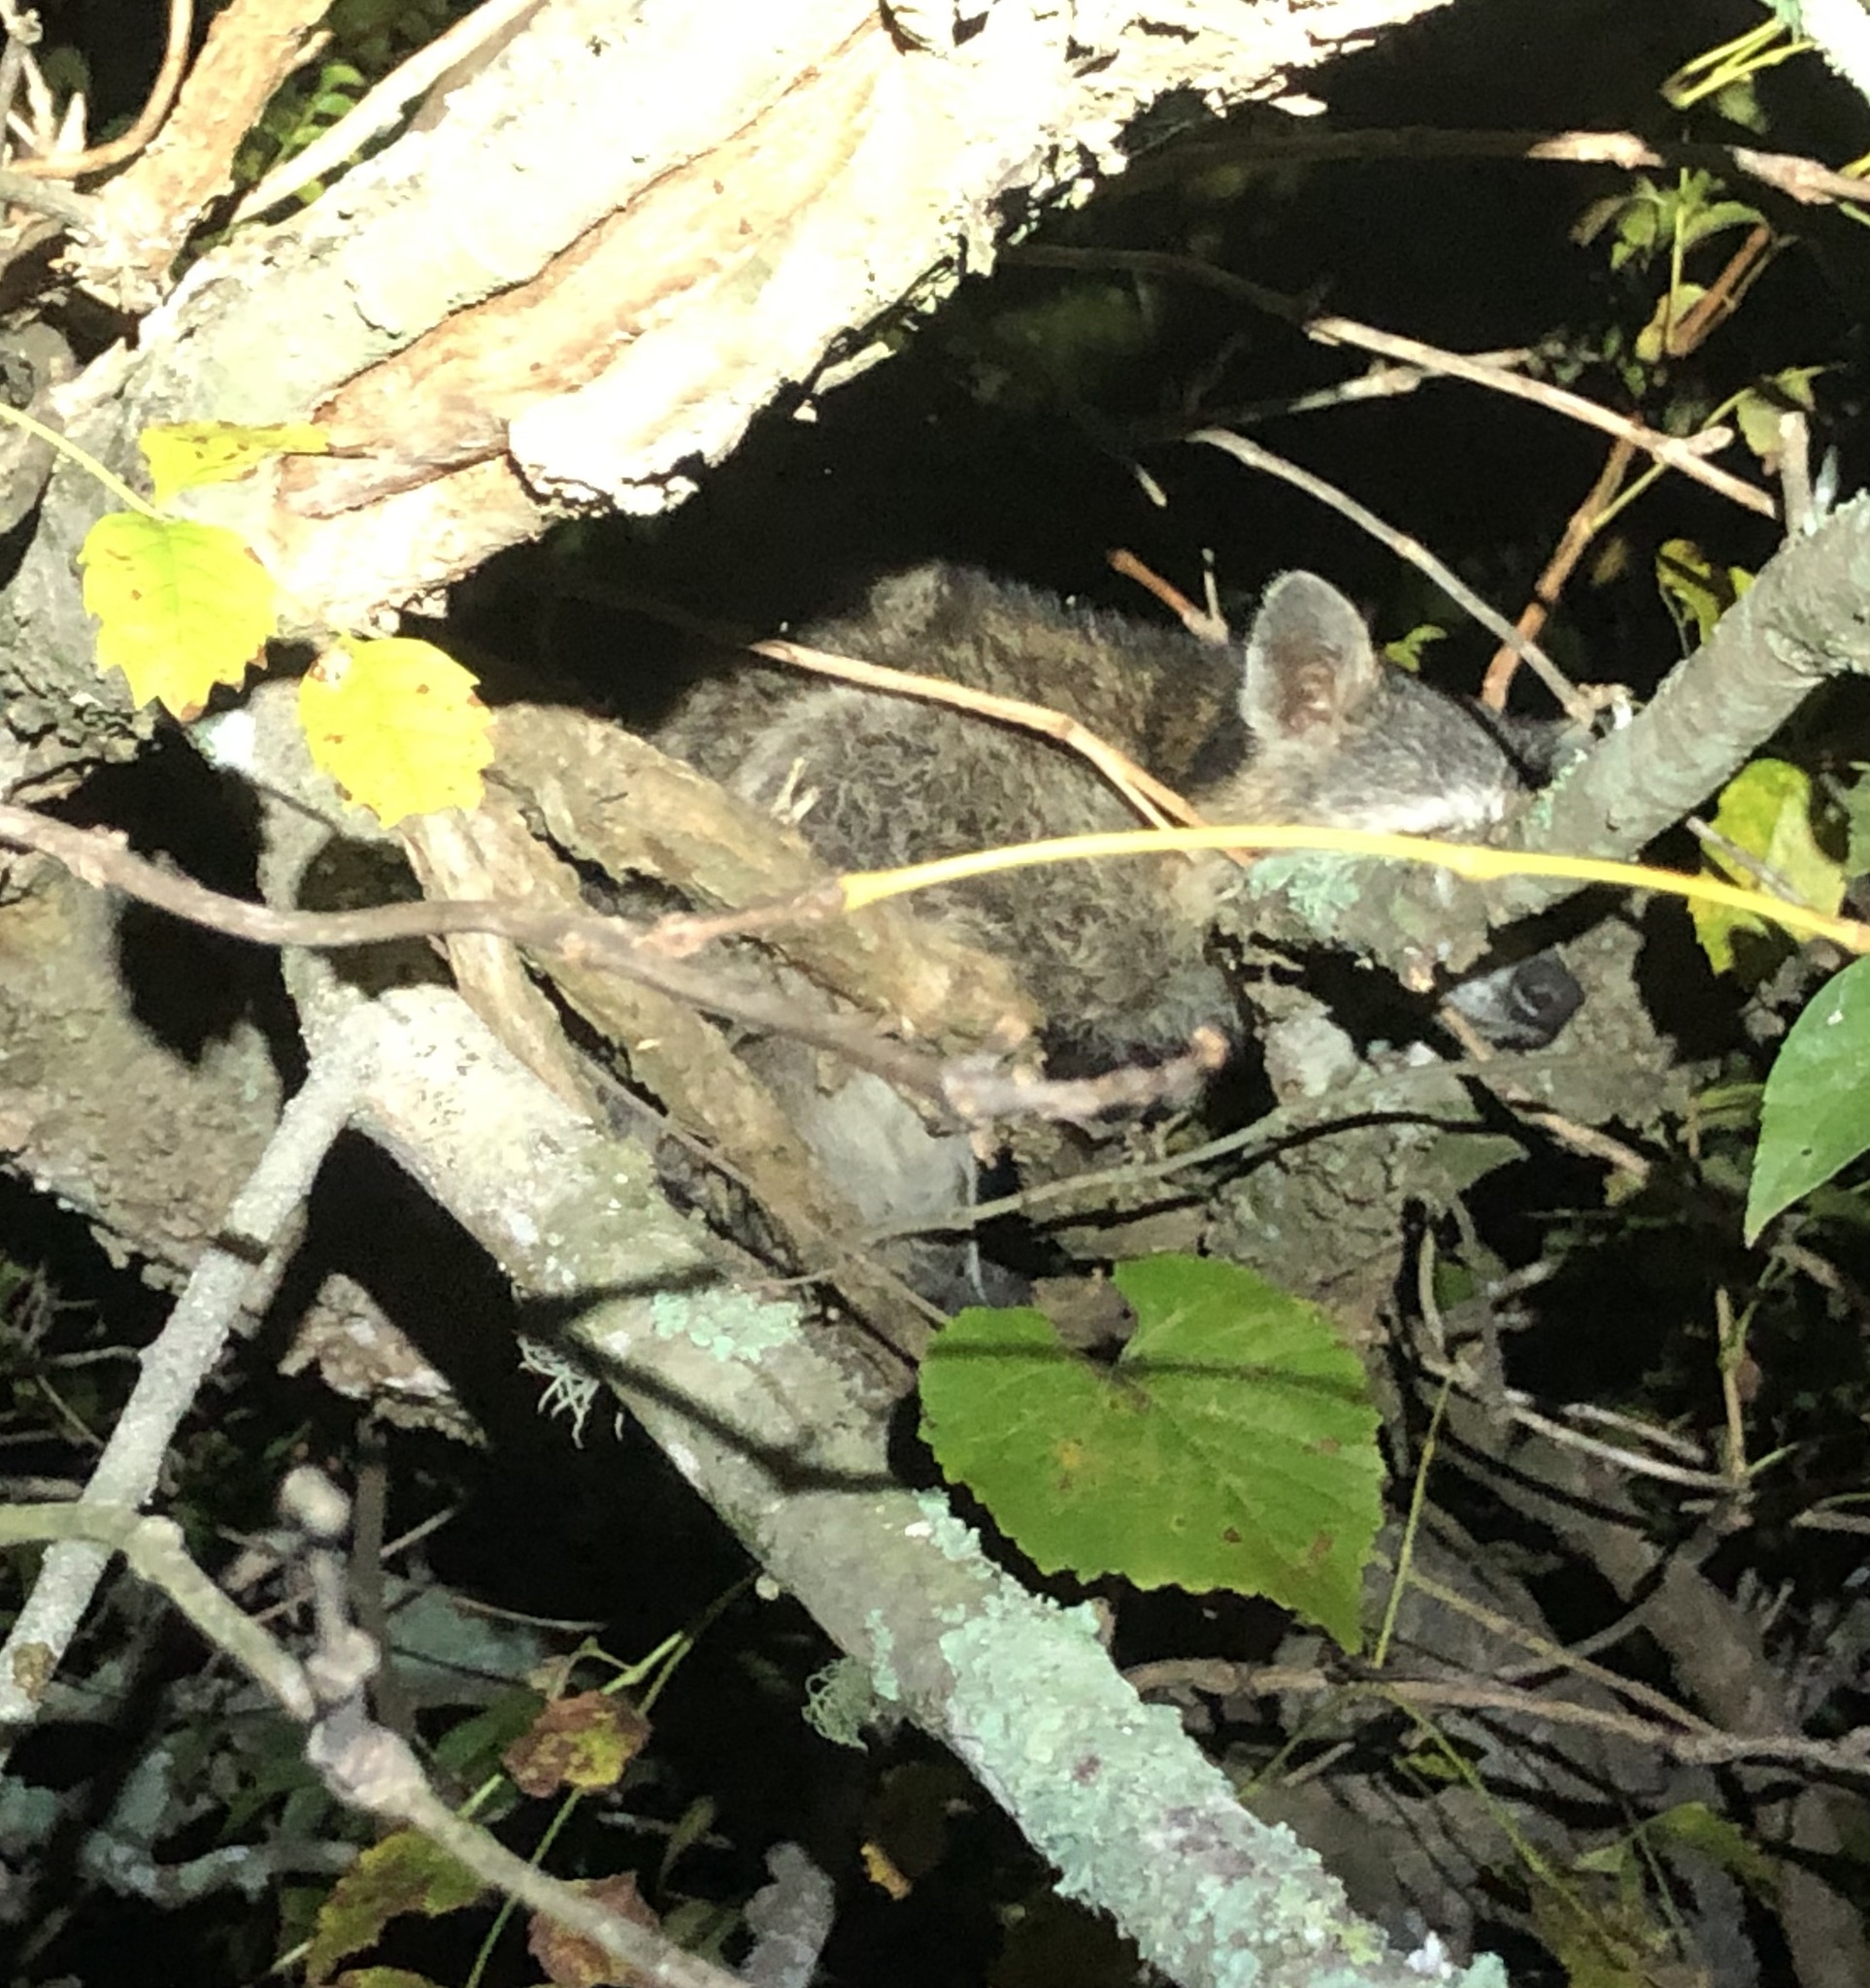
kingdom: Animalia
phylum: Chordata
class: Mammalia
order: Carnivora
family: Procyonidae
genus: Procyon
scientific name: Procyon lotor
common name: Raccoon
